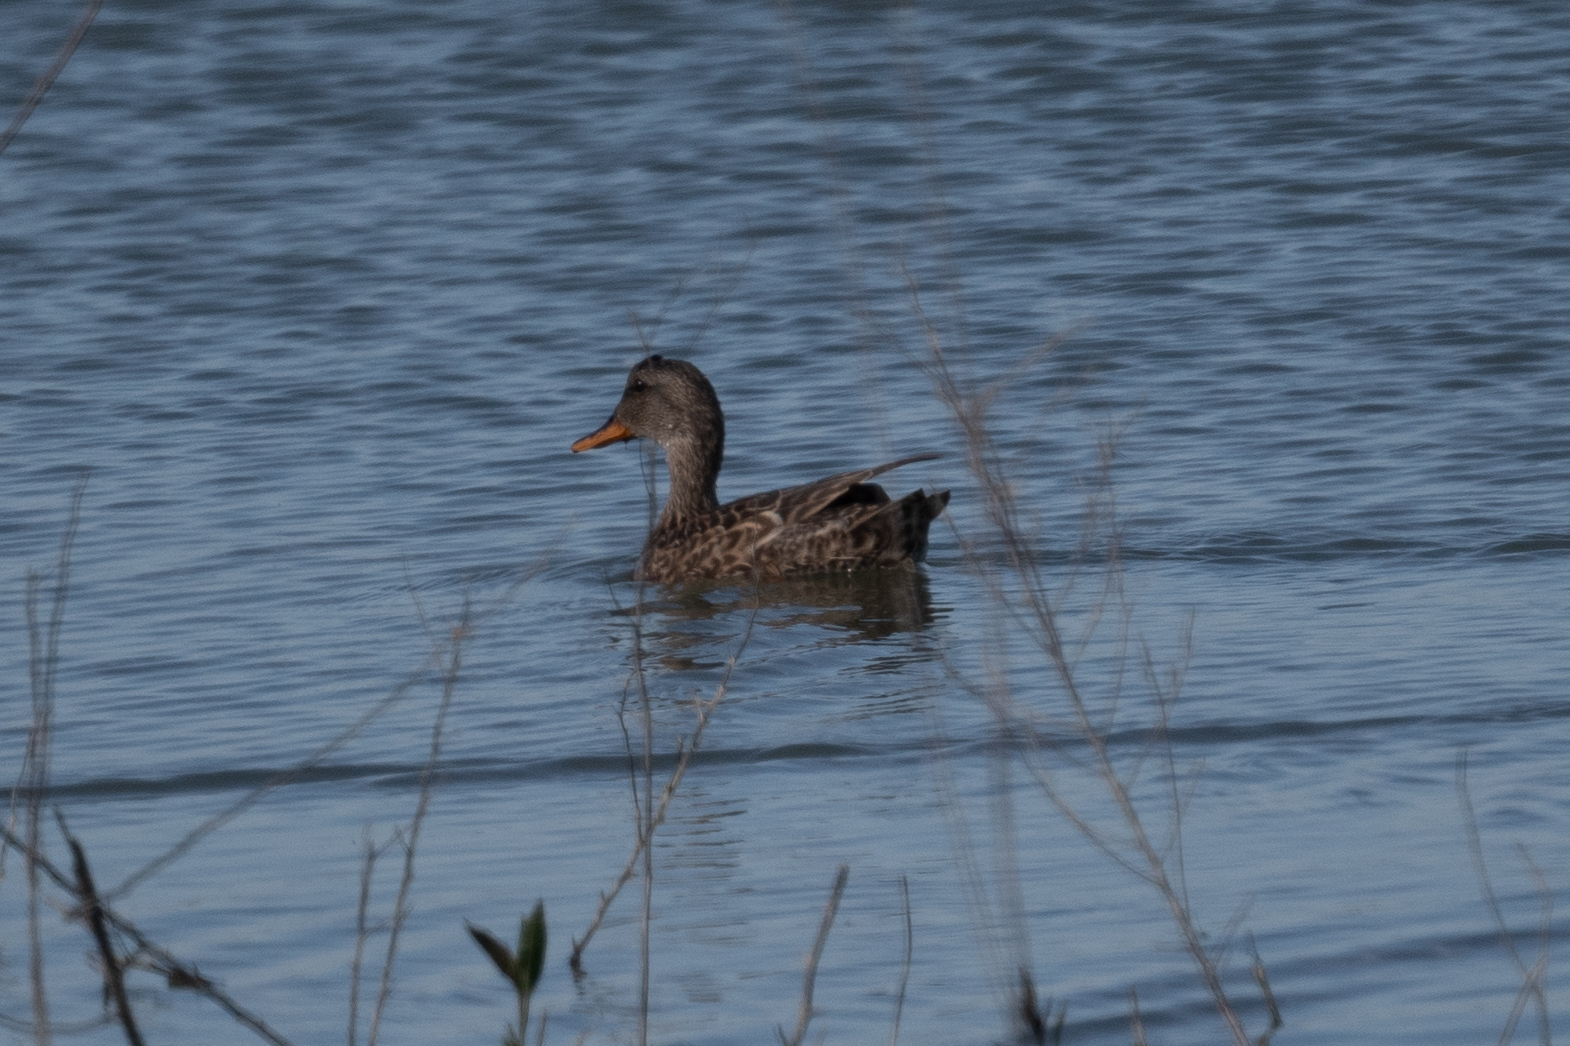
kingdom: Animalia
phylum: Chordata
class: Aves
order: Anseriformes
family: Anatidae
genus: Mareca
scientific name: Mareca strepera
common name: Gadwall
